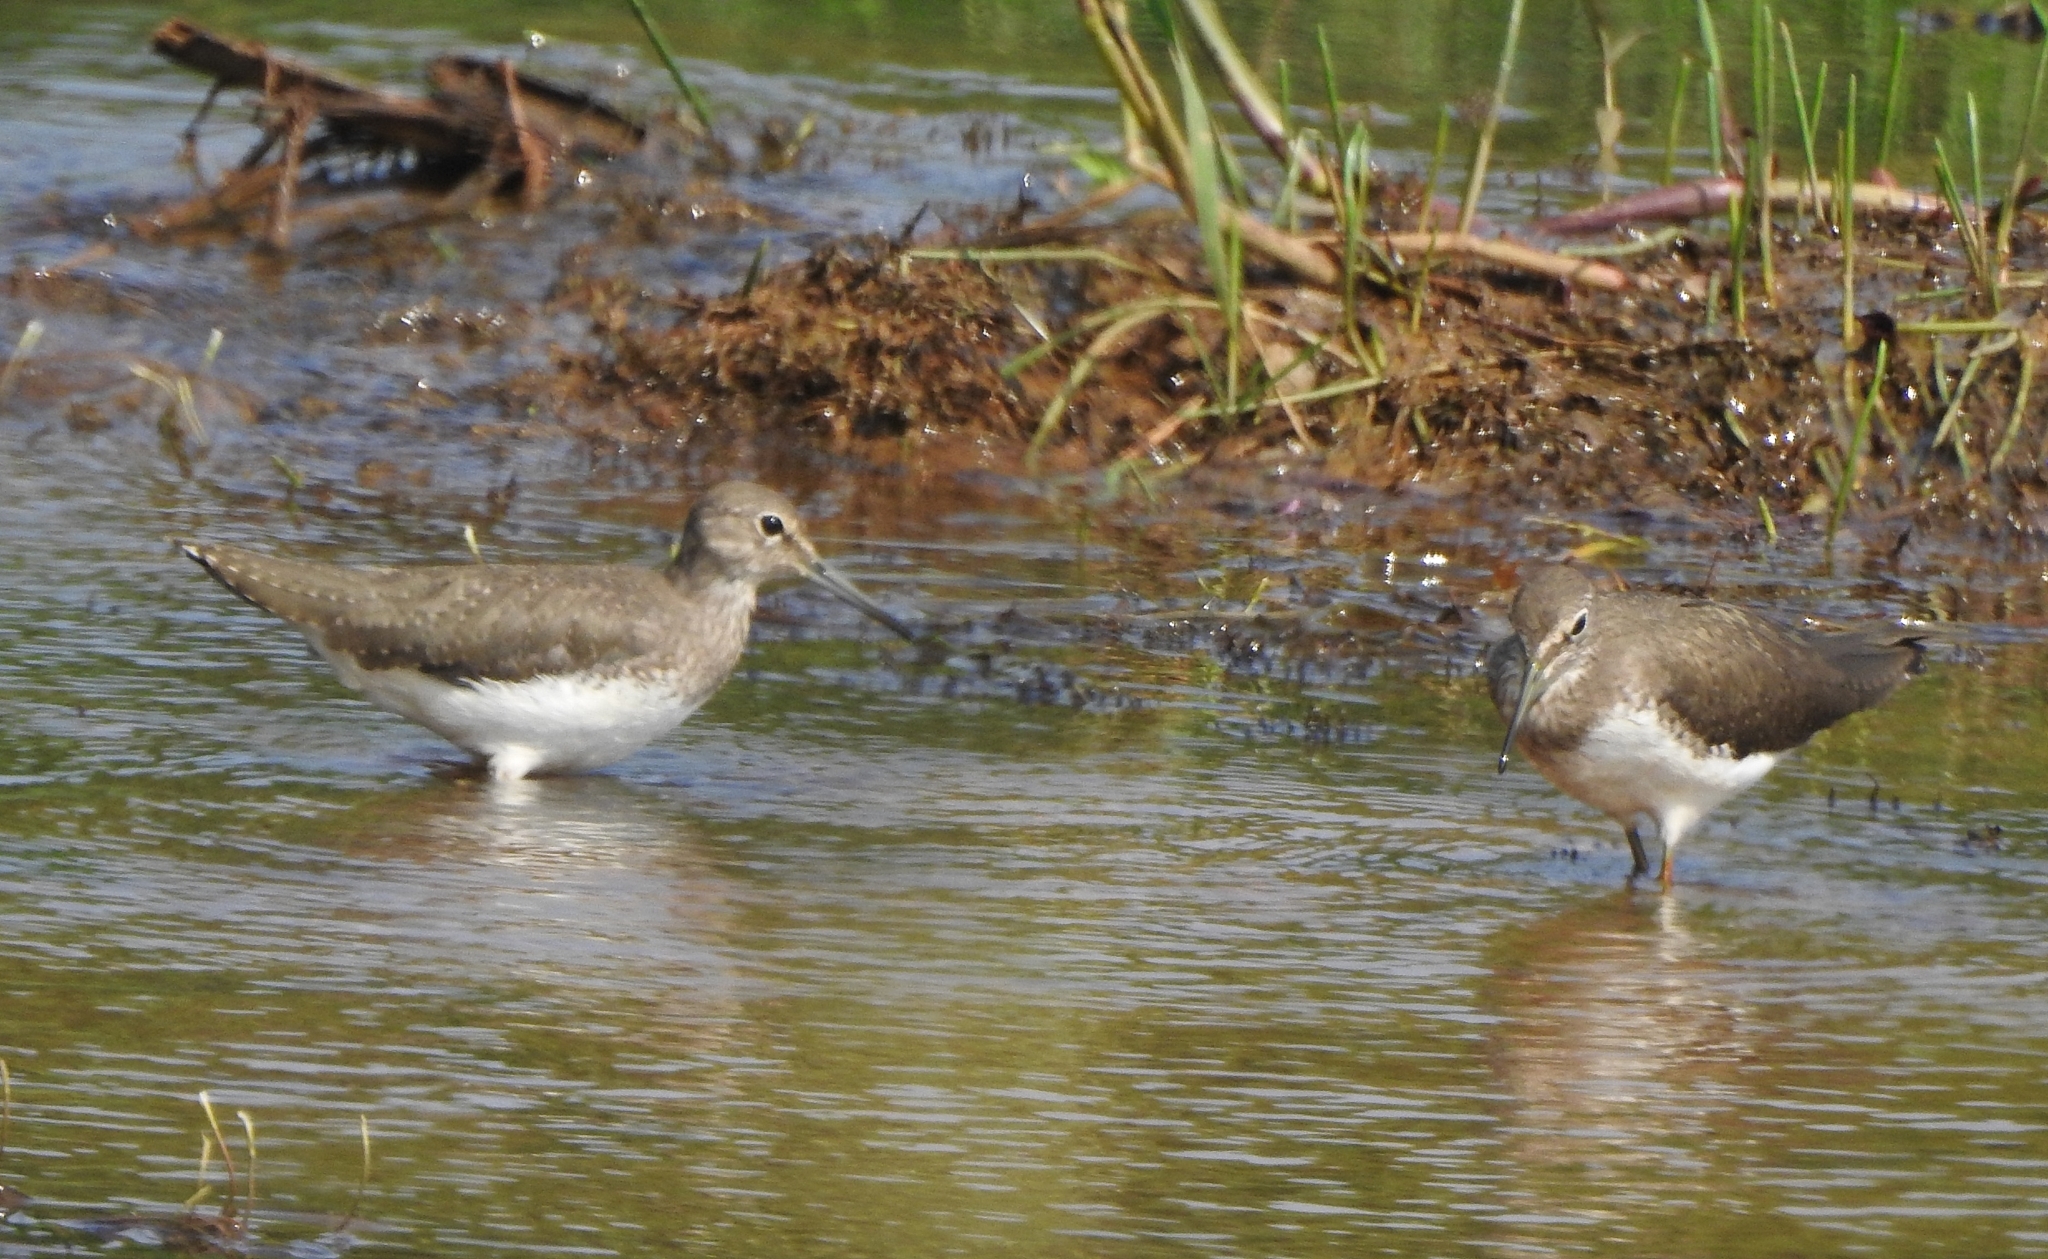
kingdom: Animalia
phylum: Chordata
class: Aves
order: Charadriiformes
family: Scolopacidae
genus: Tringa
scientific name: Tringa ochropus
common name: Green sandpiper
